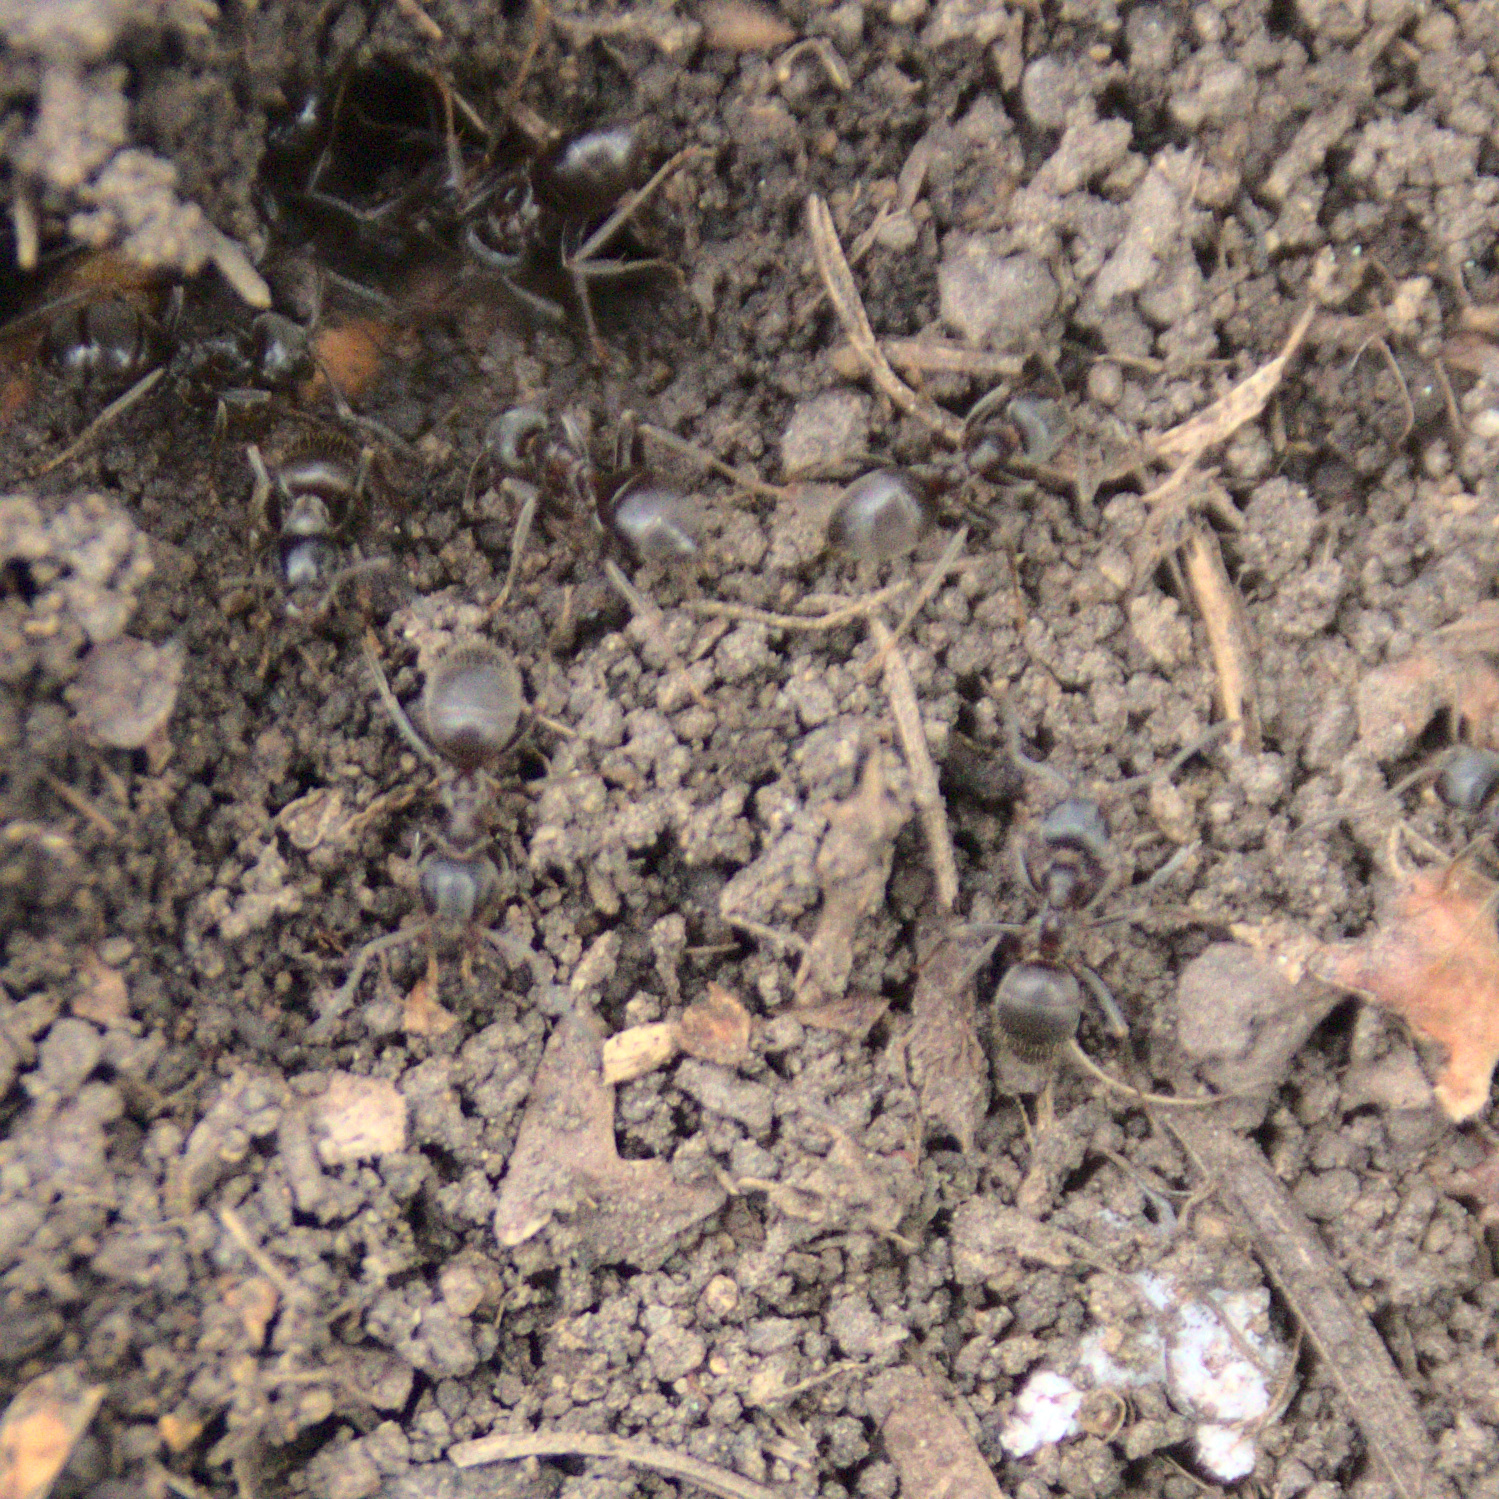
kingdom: Animalia
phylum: Arthropoda
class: Insecta
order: Hymenoptera
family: Formicidae
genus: Lasius
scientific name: Lasius
